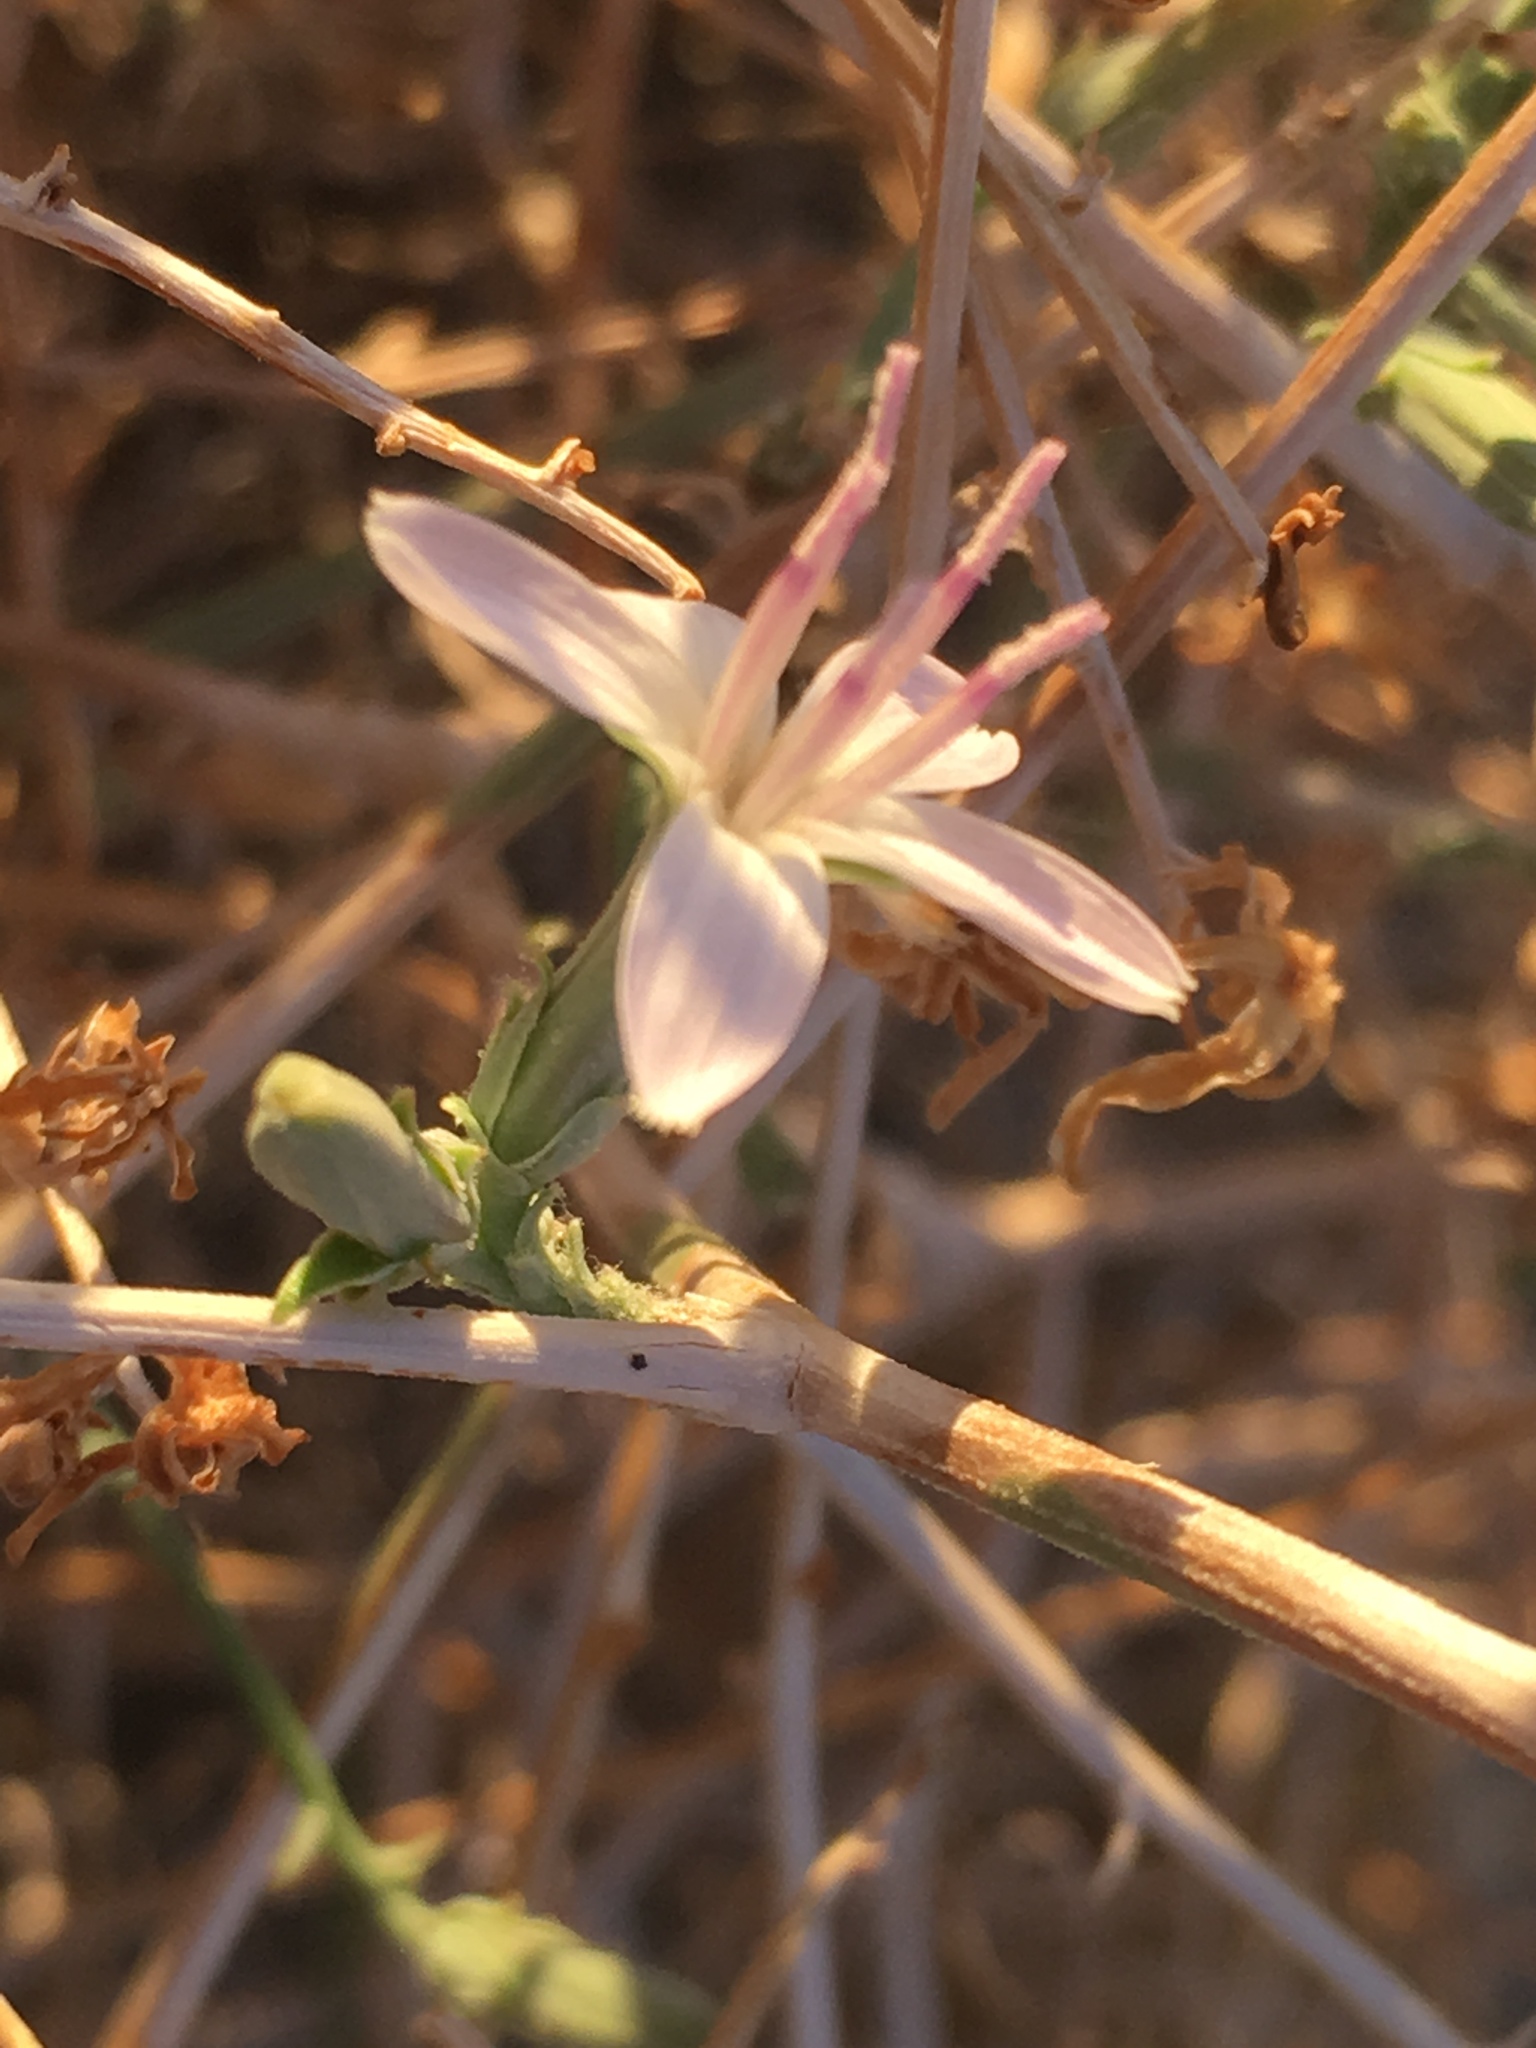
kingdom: Plantae
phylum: Tracheophyta
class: Magnoliopsida
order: Asterales
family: Asteraceae
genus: Stephanomeria
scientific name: Stephanomeria pauciflora
